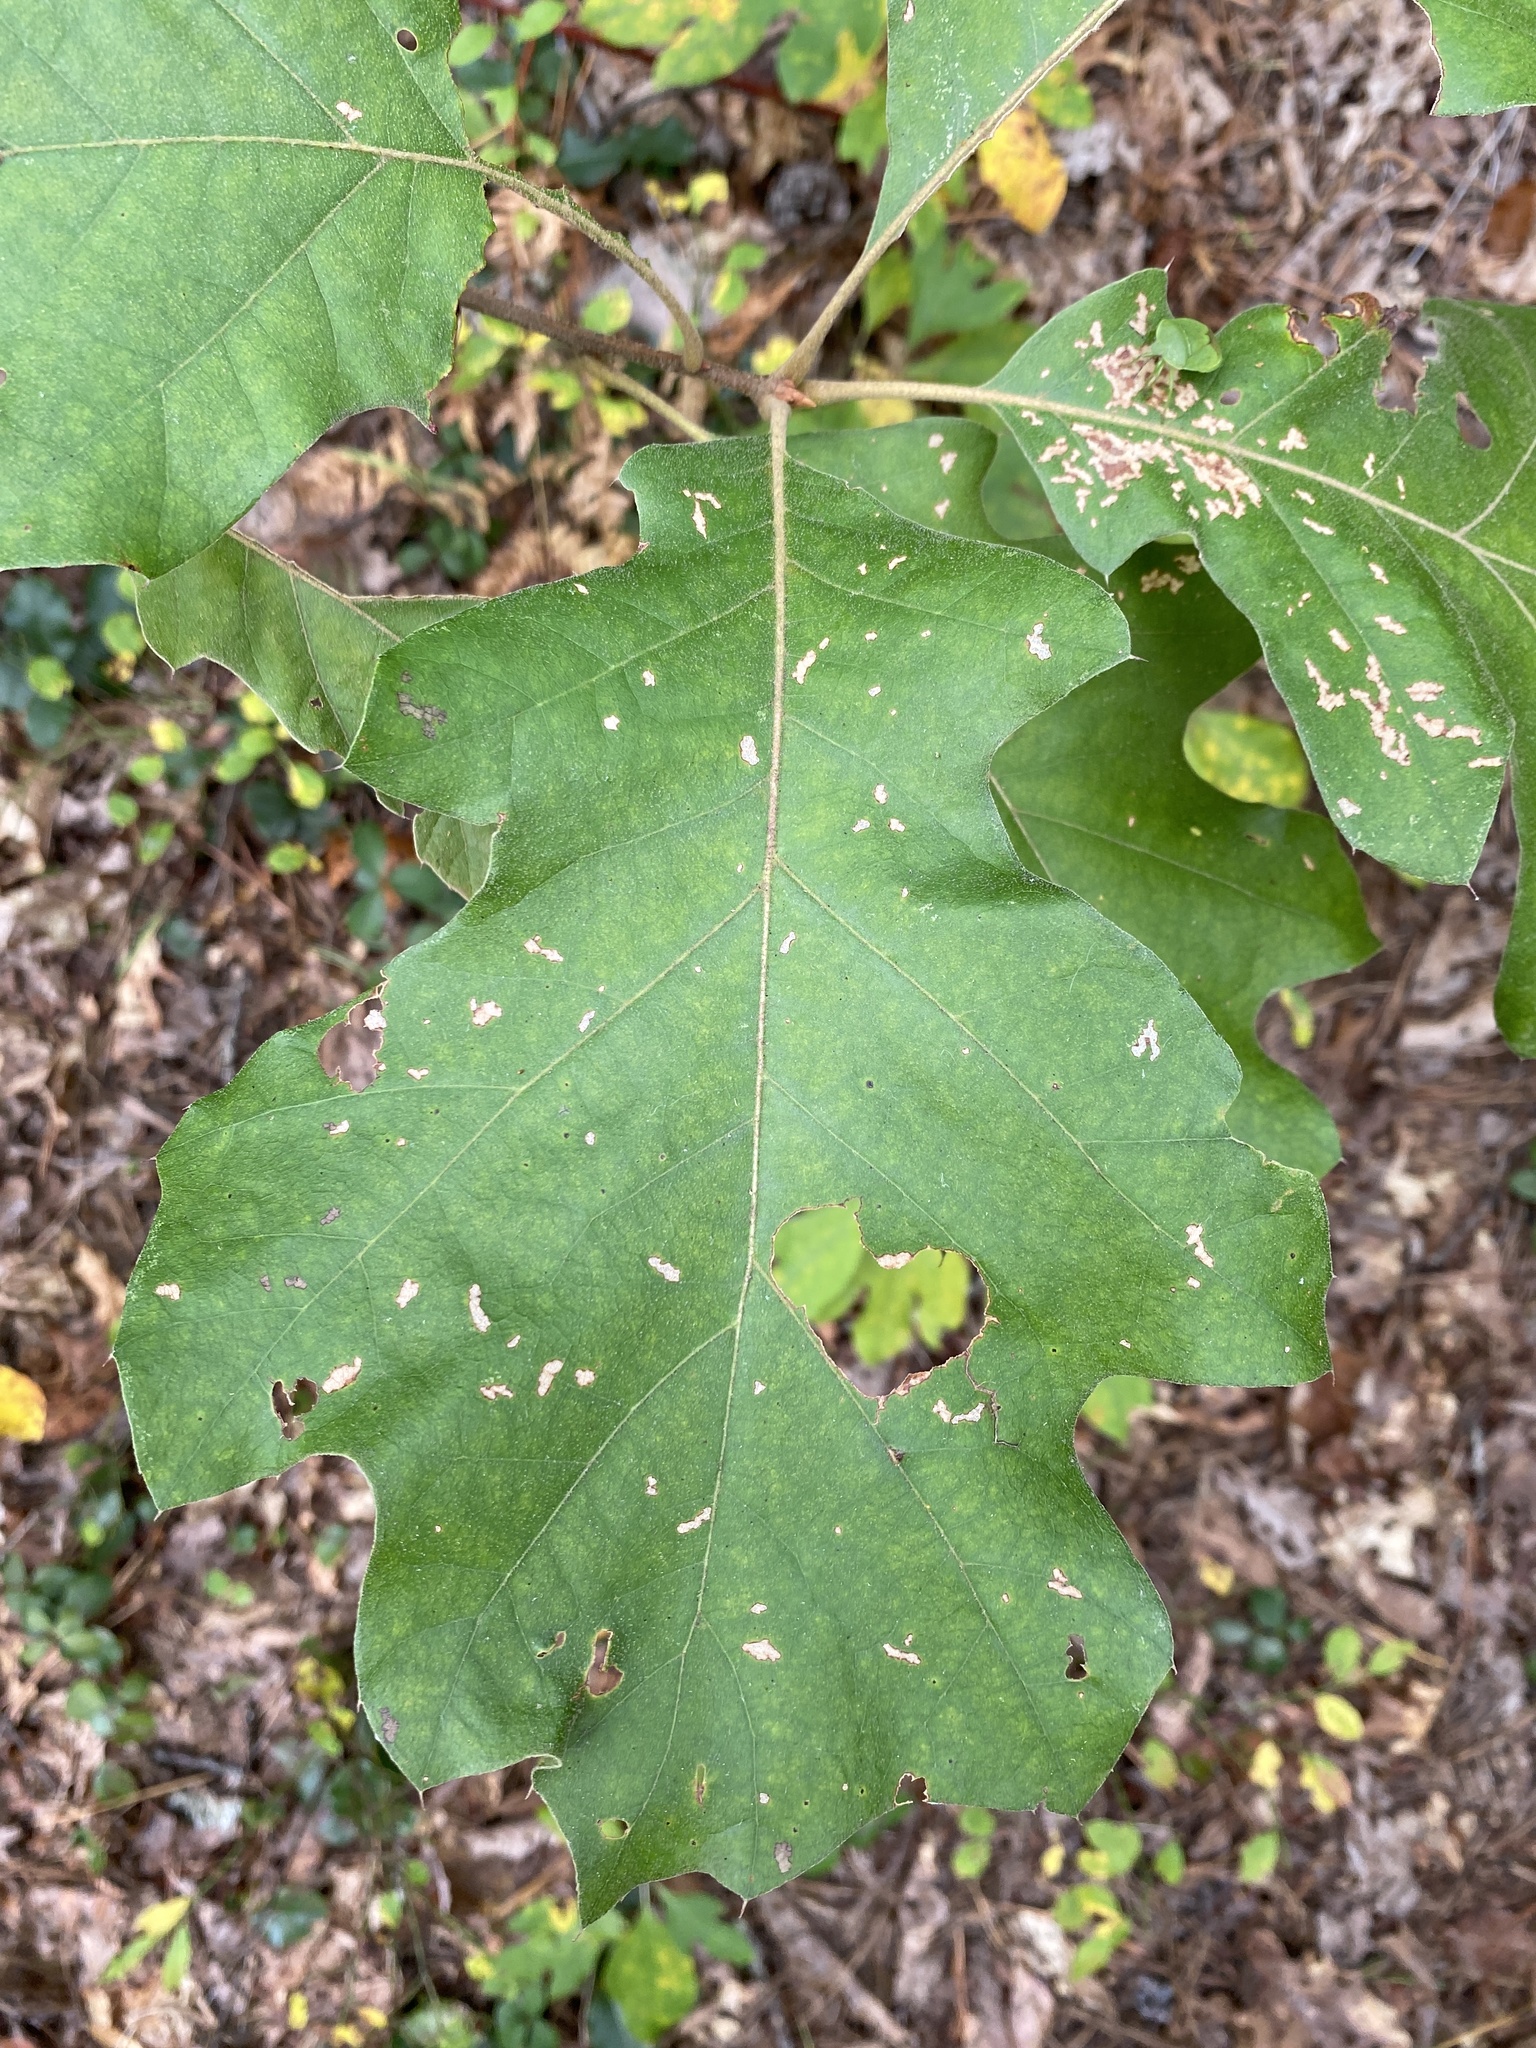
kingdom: Plantae
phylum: Tracheophyta
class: Magnoliopsida
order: Fagales
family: Fagaceae
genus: Quercus
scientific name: Quercus velutina
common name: Black oak
